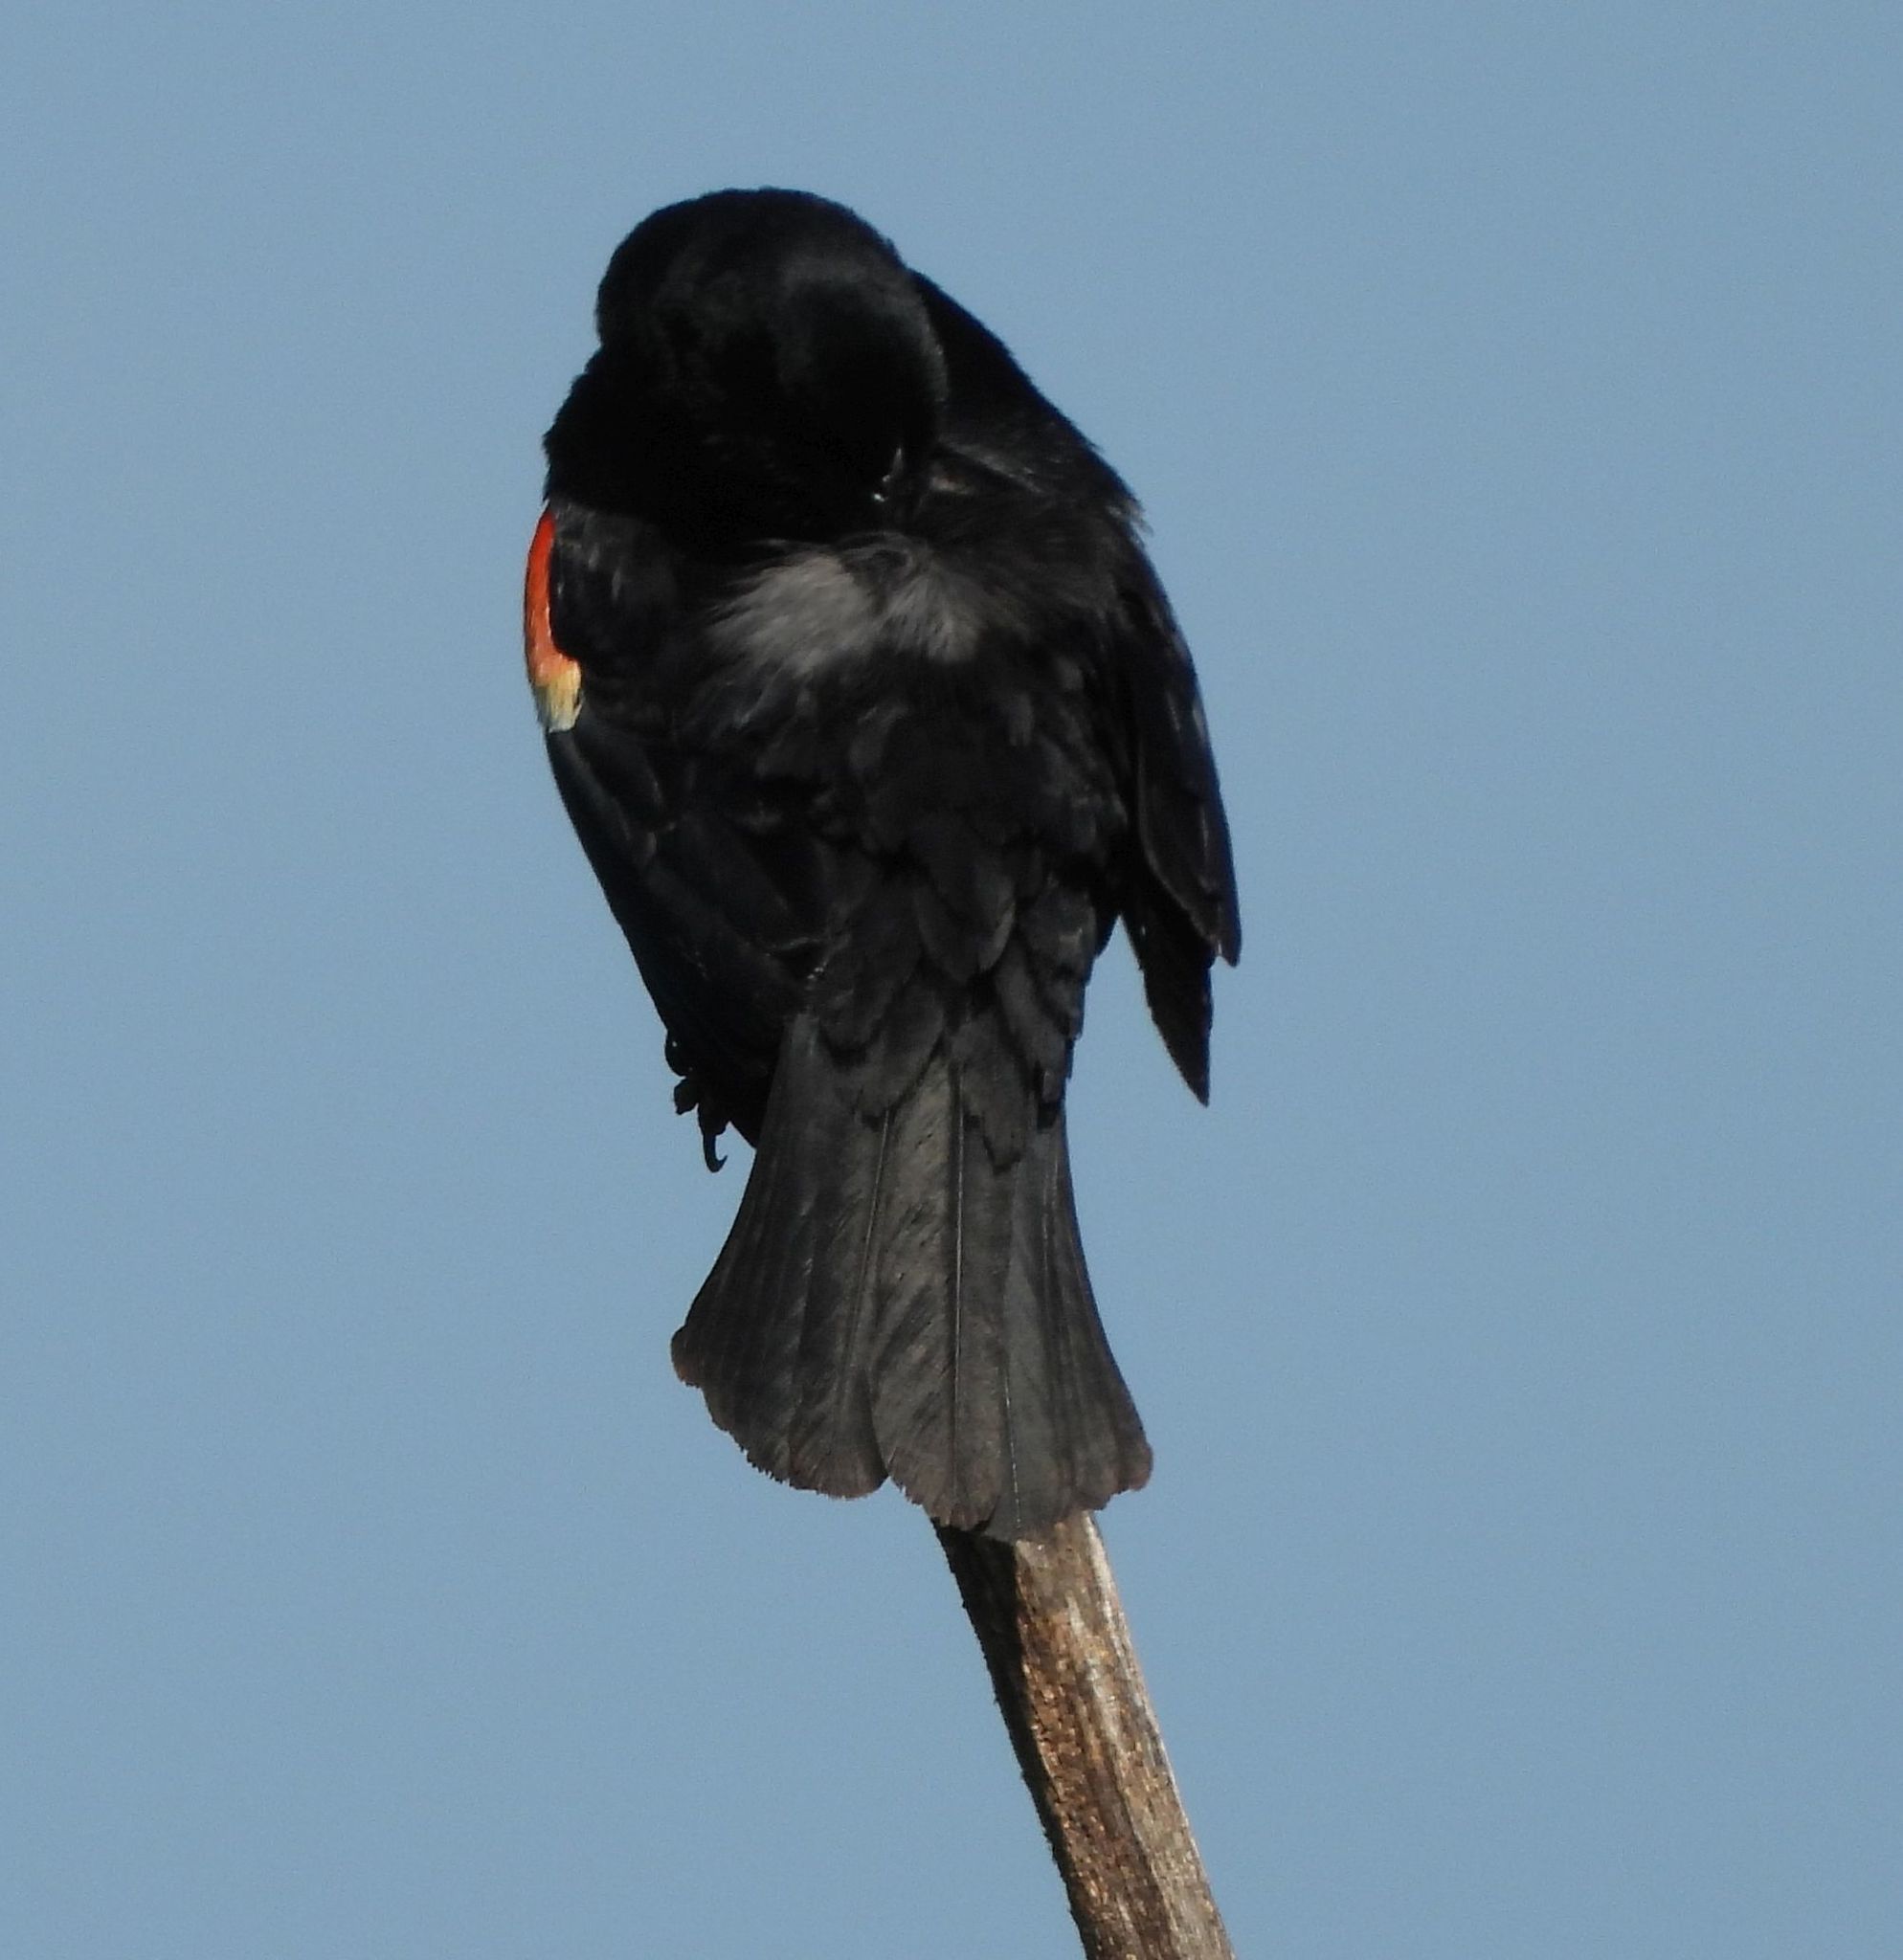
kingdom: Animalia
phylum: Chordata
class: Aves
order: Passeriformes
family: Icteridae
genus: Agelaius
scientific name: Agelaius phoeniceus
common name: Red-winged blackbird
